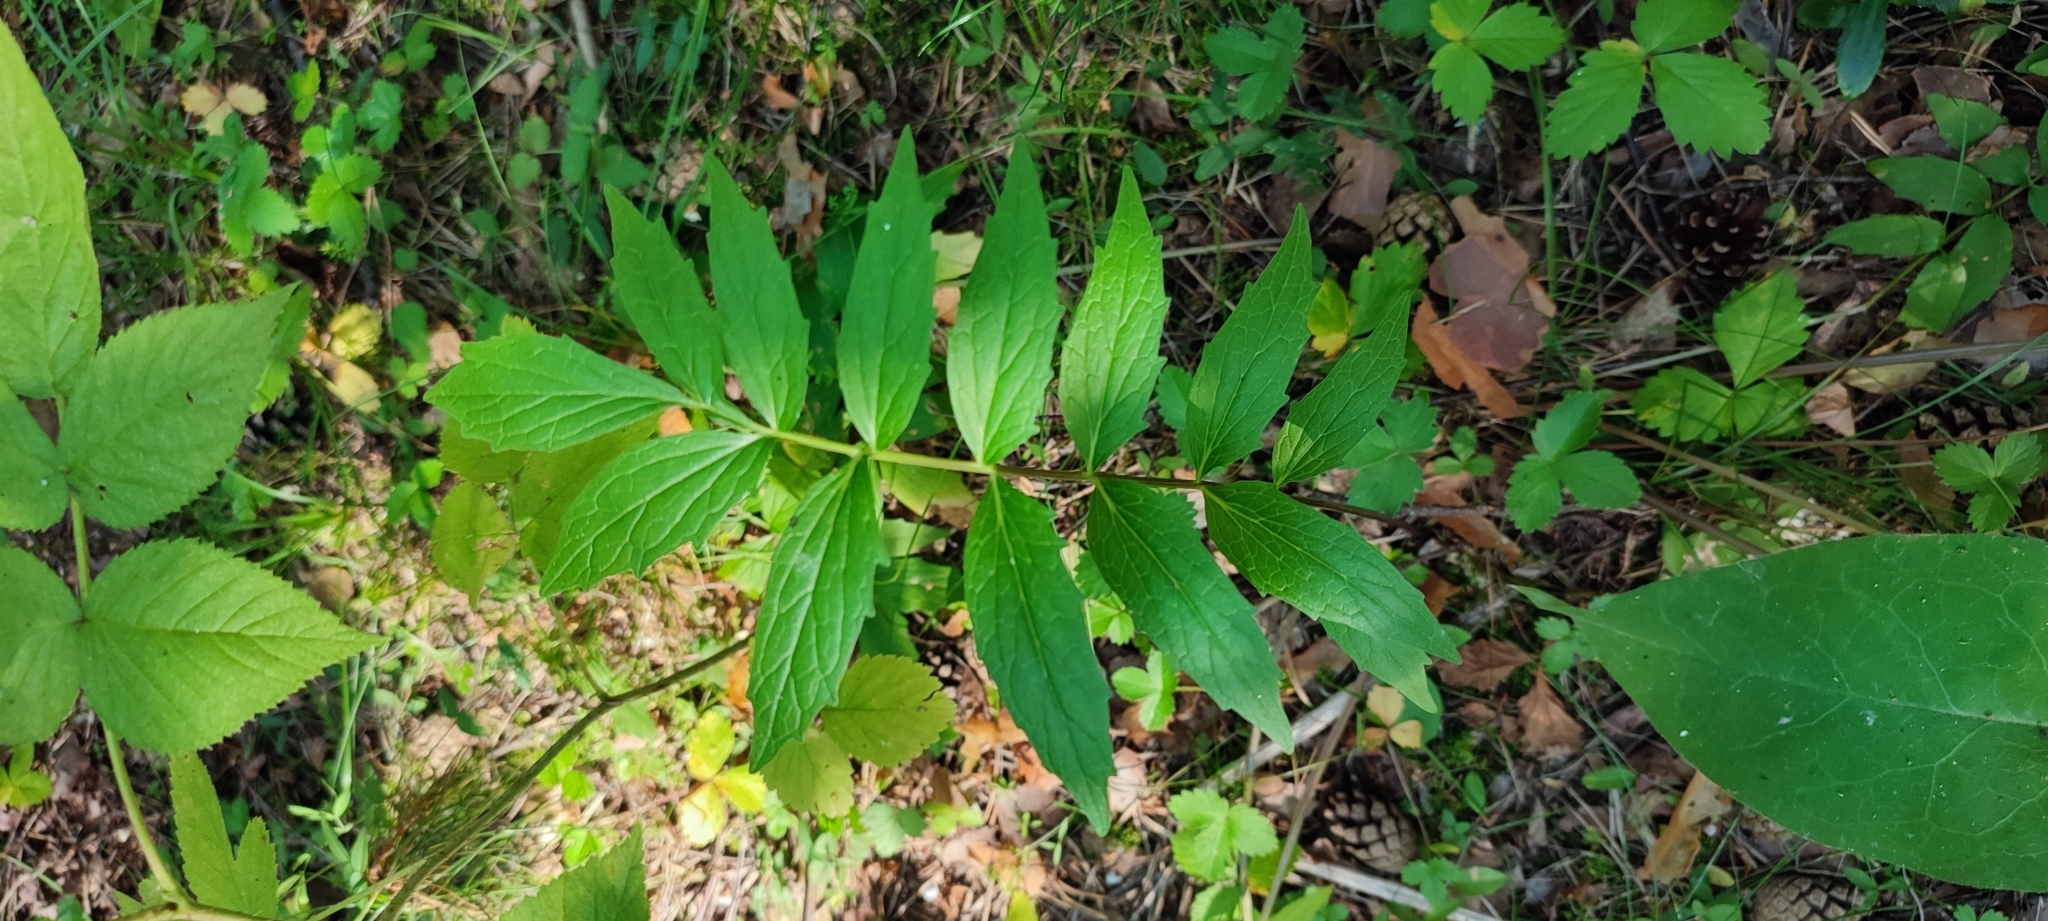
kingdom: Plantae
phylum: Tracheophyta
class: Magnoliopsida
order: Dipsacales
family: Caprifoliaceae
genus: Valeriana
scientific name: Valeriana wolgensis
